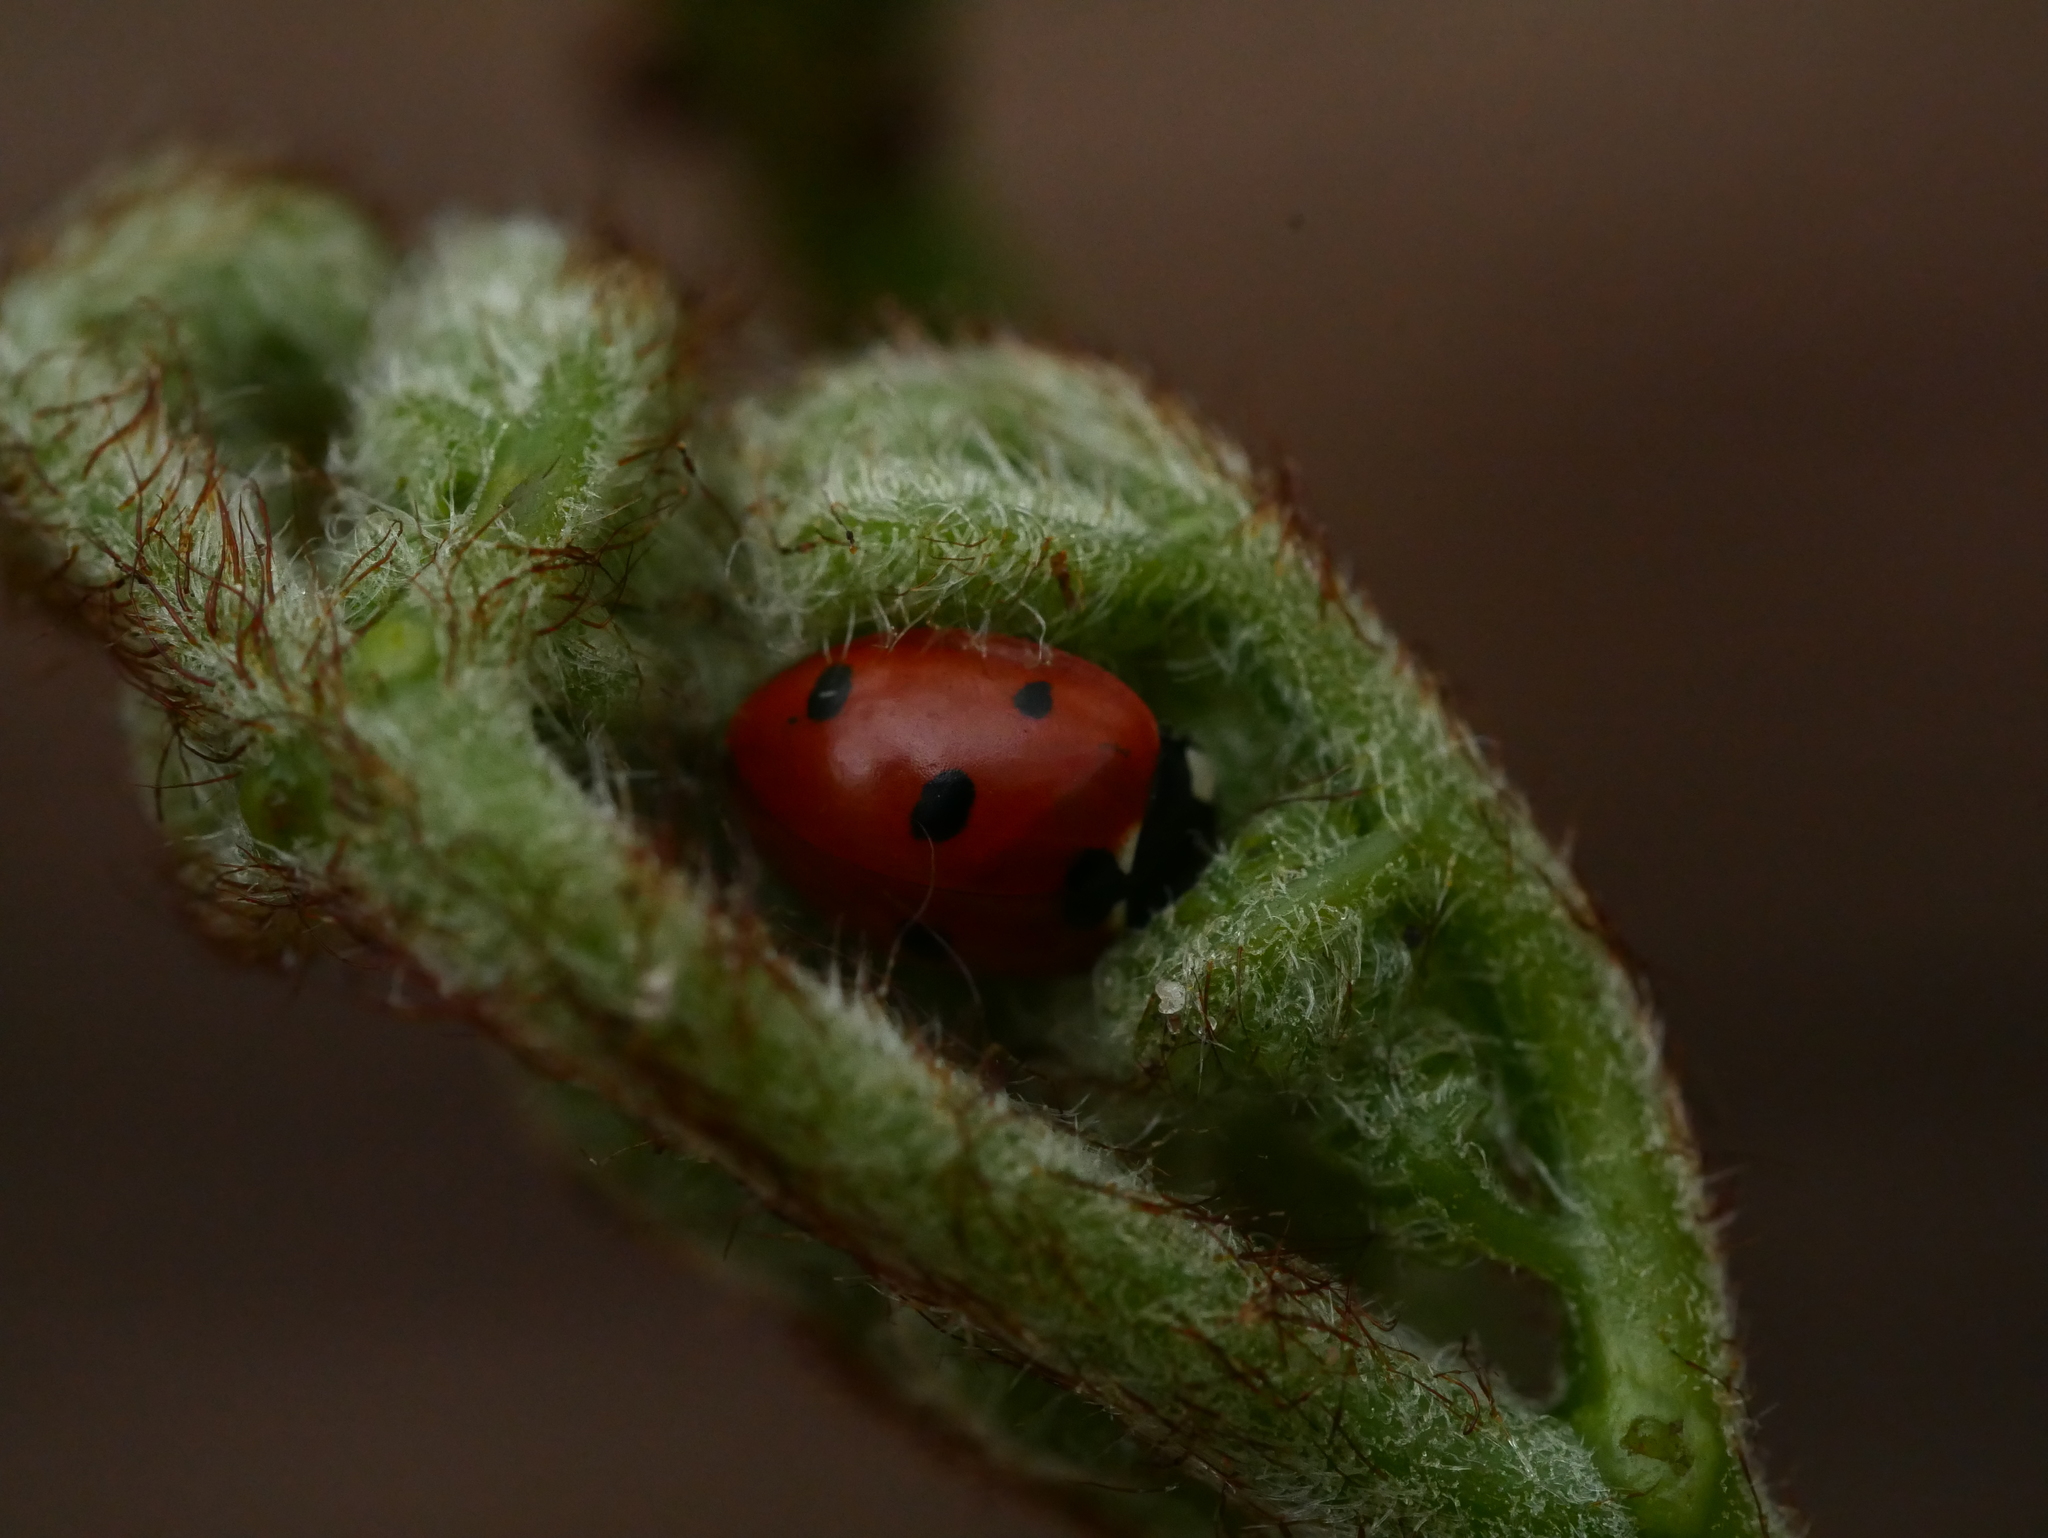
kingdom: Animalia
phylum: Arthropoda
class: Insecta
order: Coleoptera
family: Coccinellidae
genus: Coccinella
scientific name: Coccinella septempunctata
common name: Sevenspotted lady beetle
